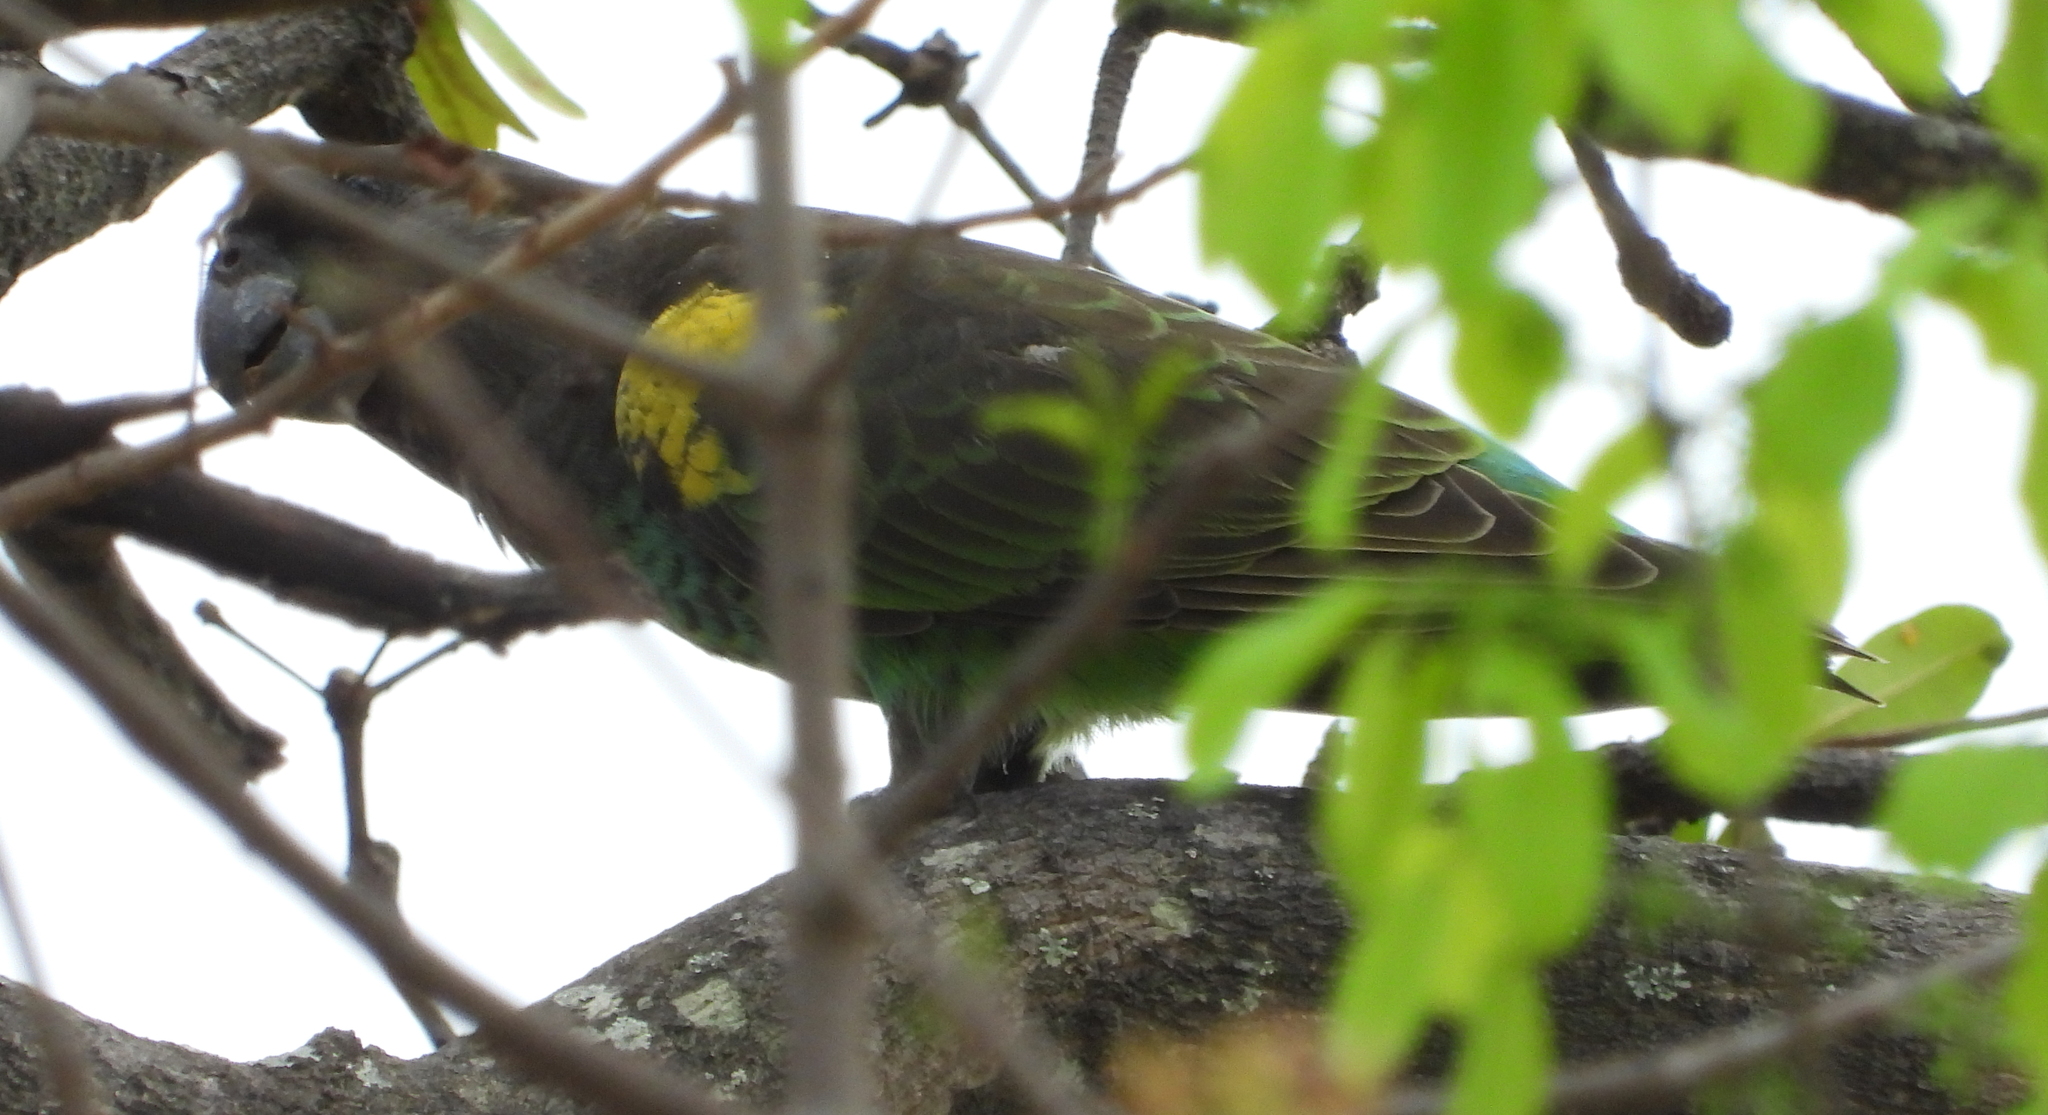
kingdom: Animalia
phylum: Chordata
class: Aves
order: Psittaciformes
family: Psittacidae
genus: Poicephalus
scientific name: Poicephalus meyeri
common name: Meyer's parrot
